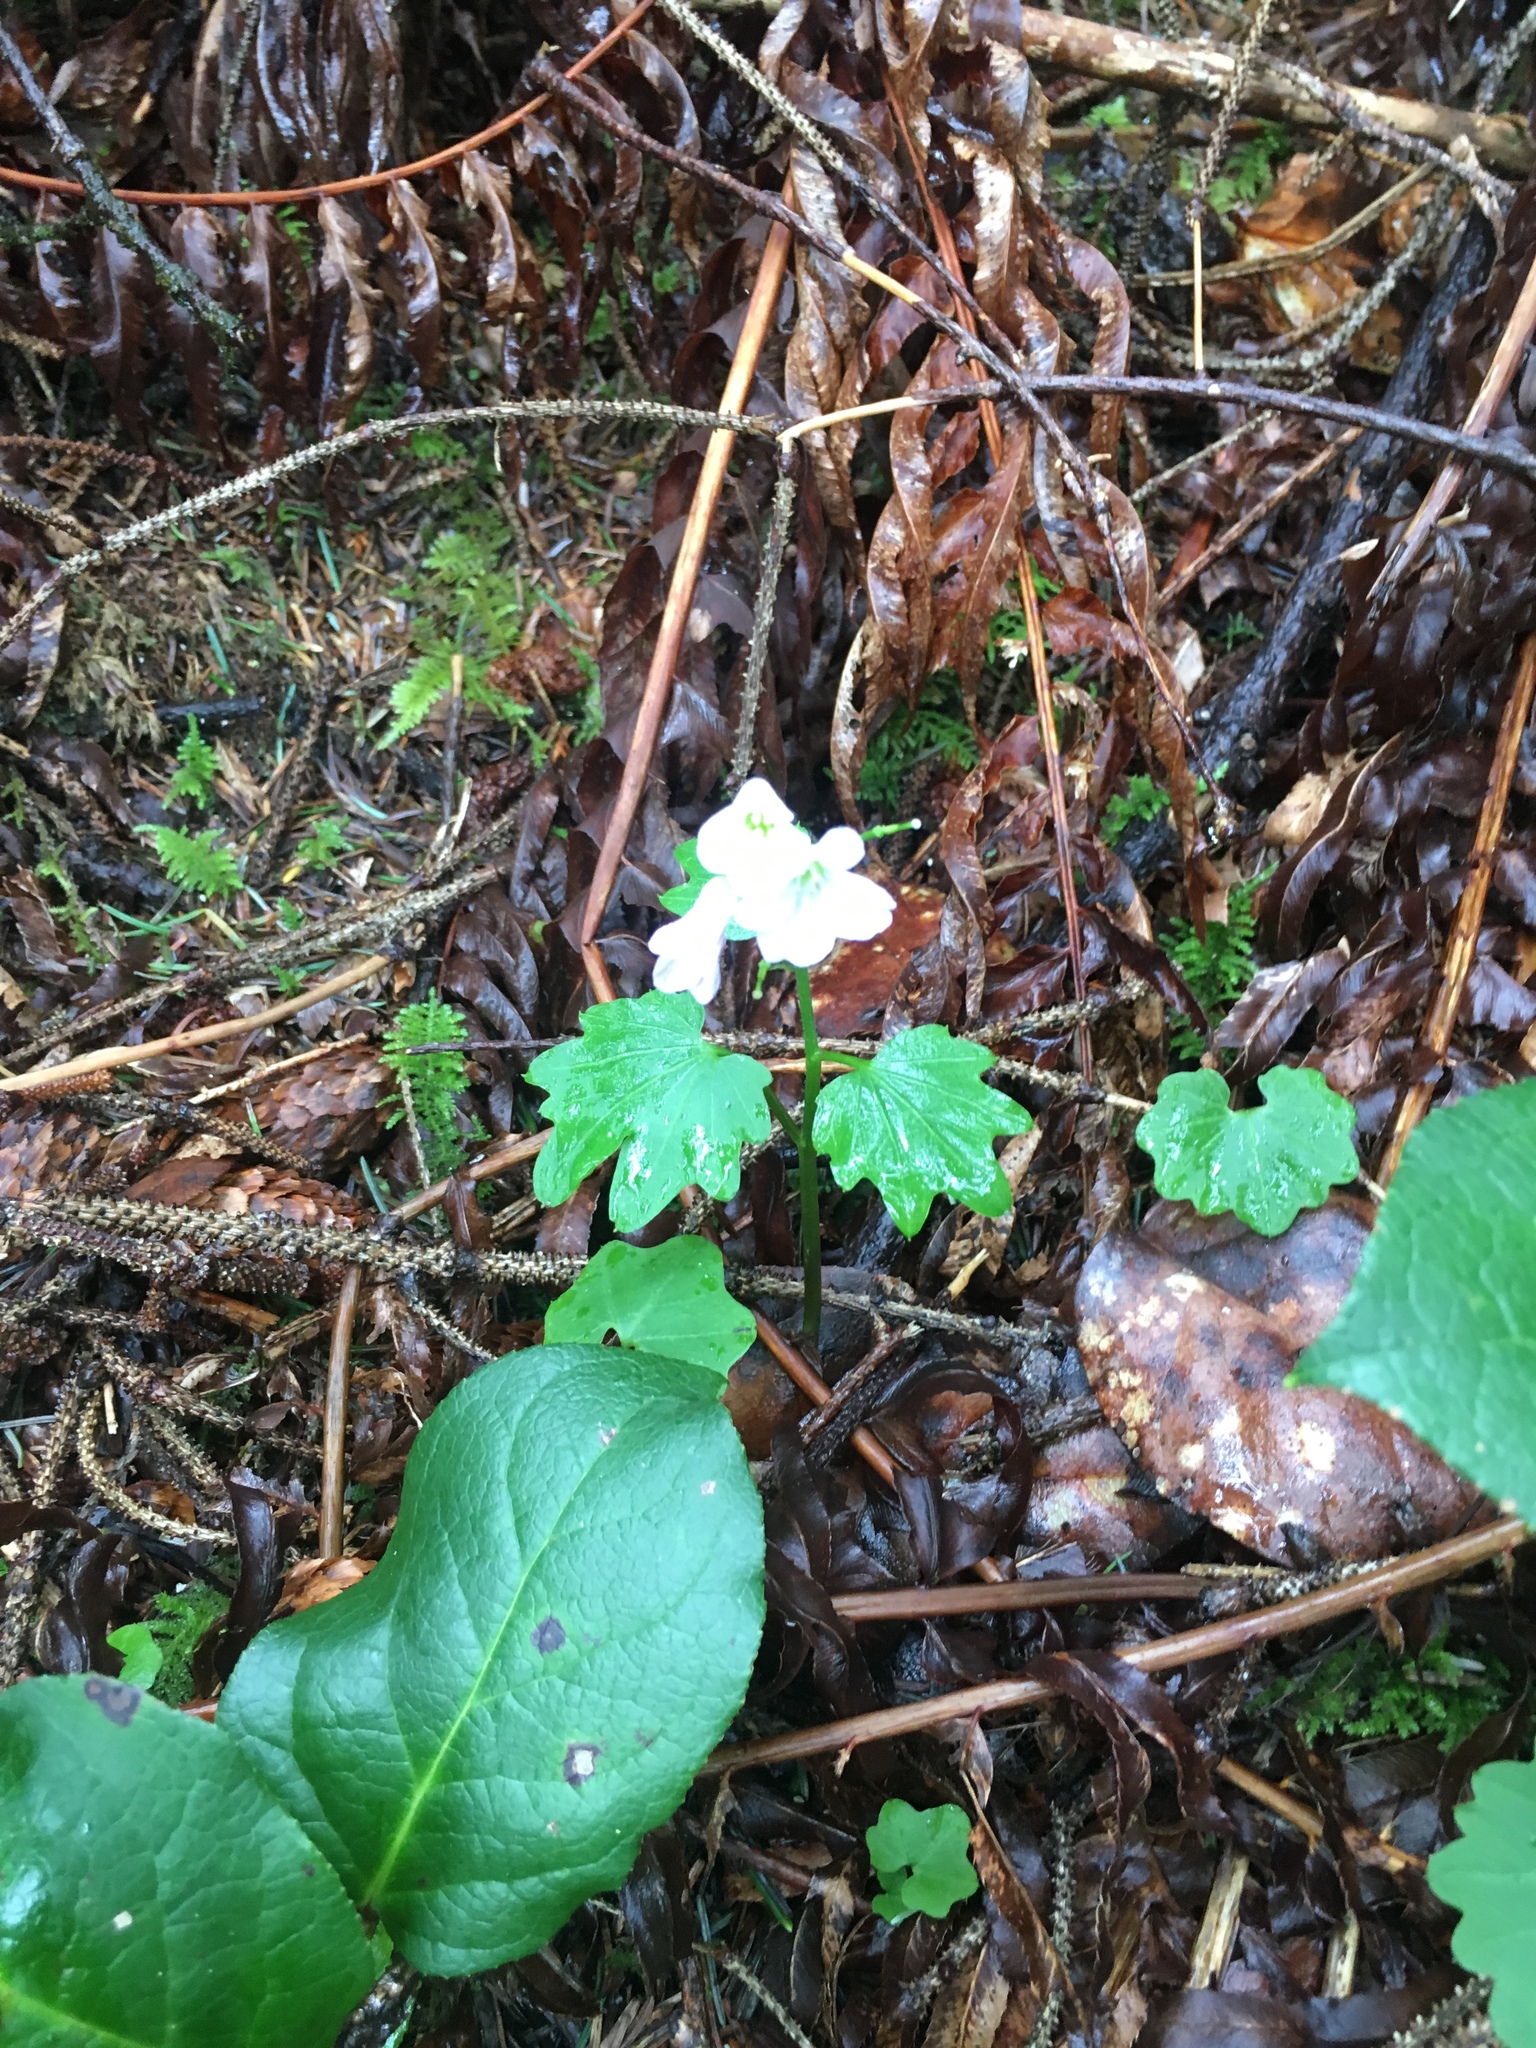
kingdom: Plantae
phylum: Tracheophyta
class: Magnoliopsida
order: Brassicales
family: Brassicaceae
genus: Cardamine
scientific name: Cardamine nuttallii
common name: Nuttall's toothwort
